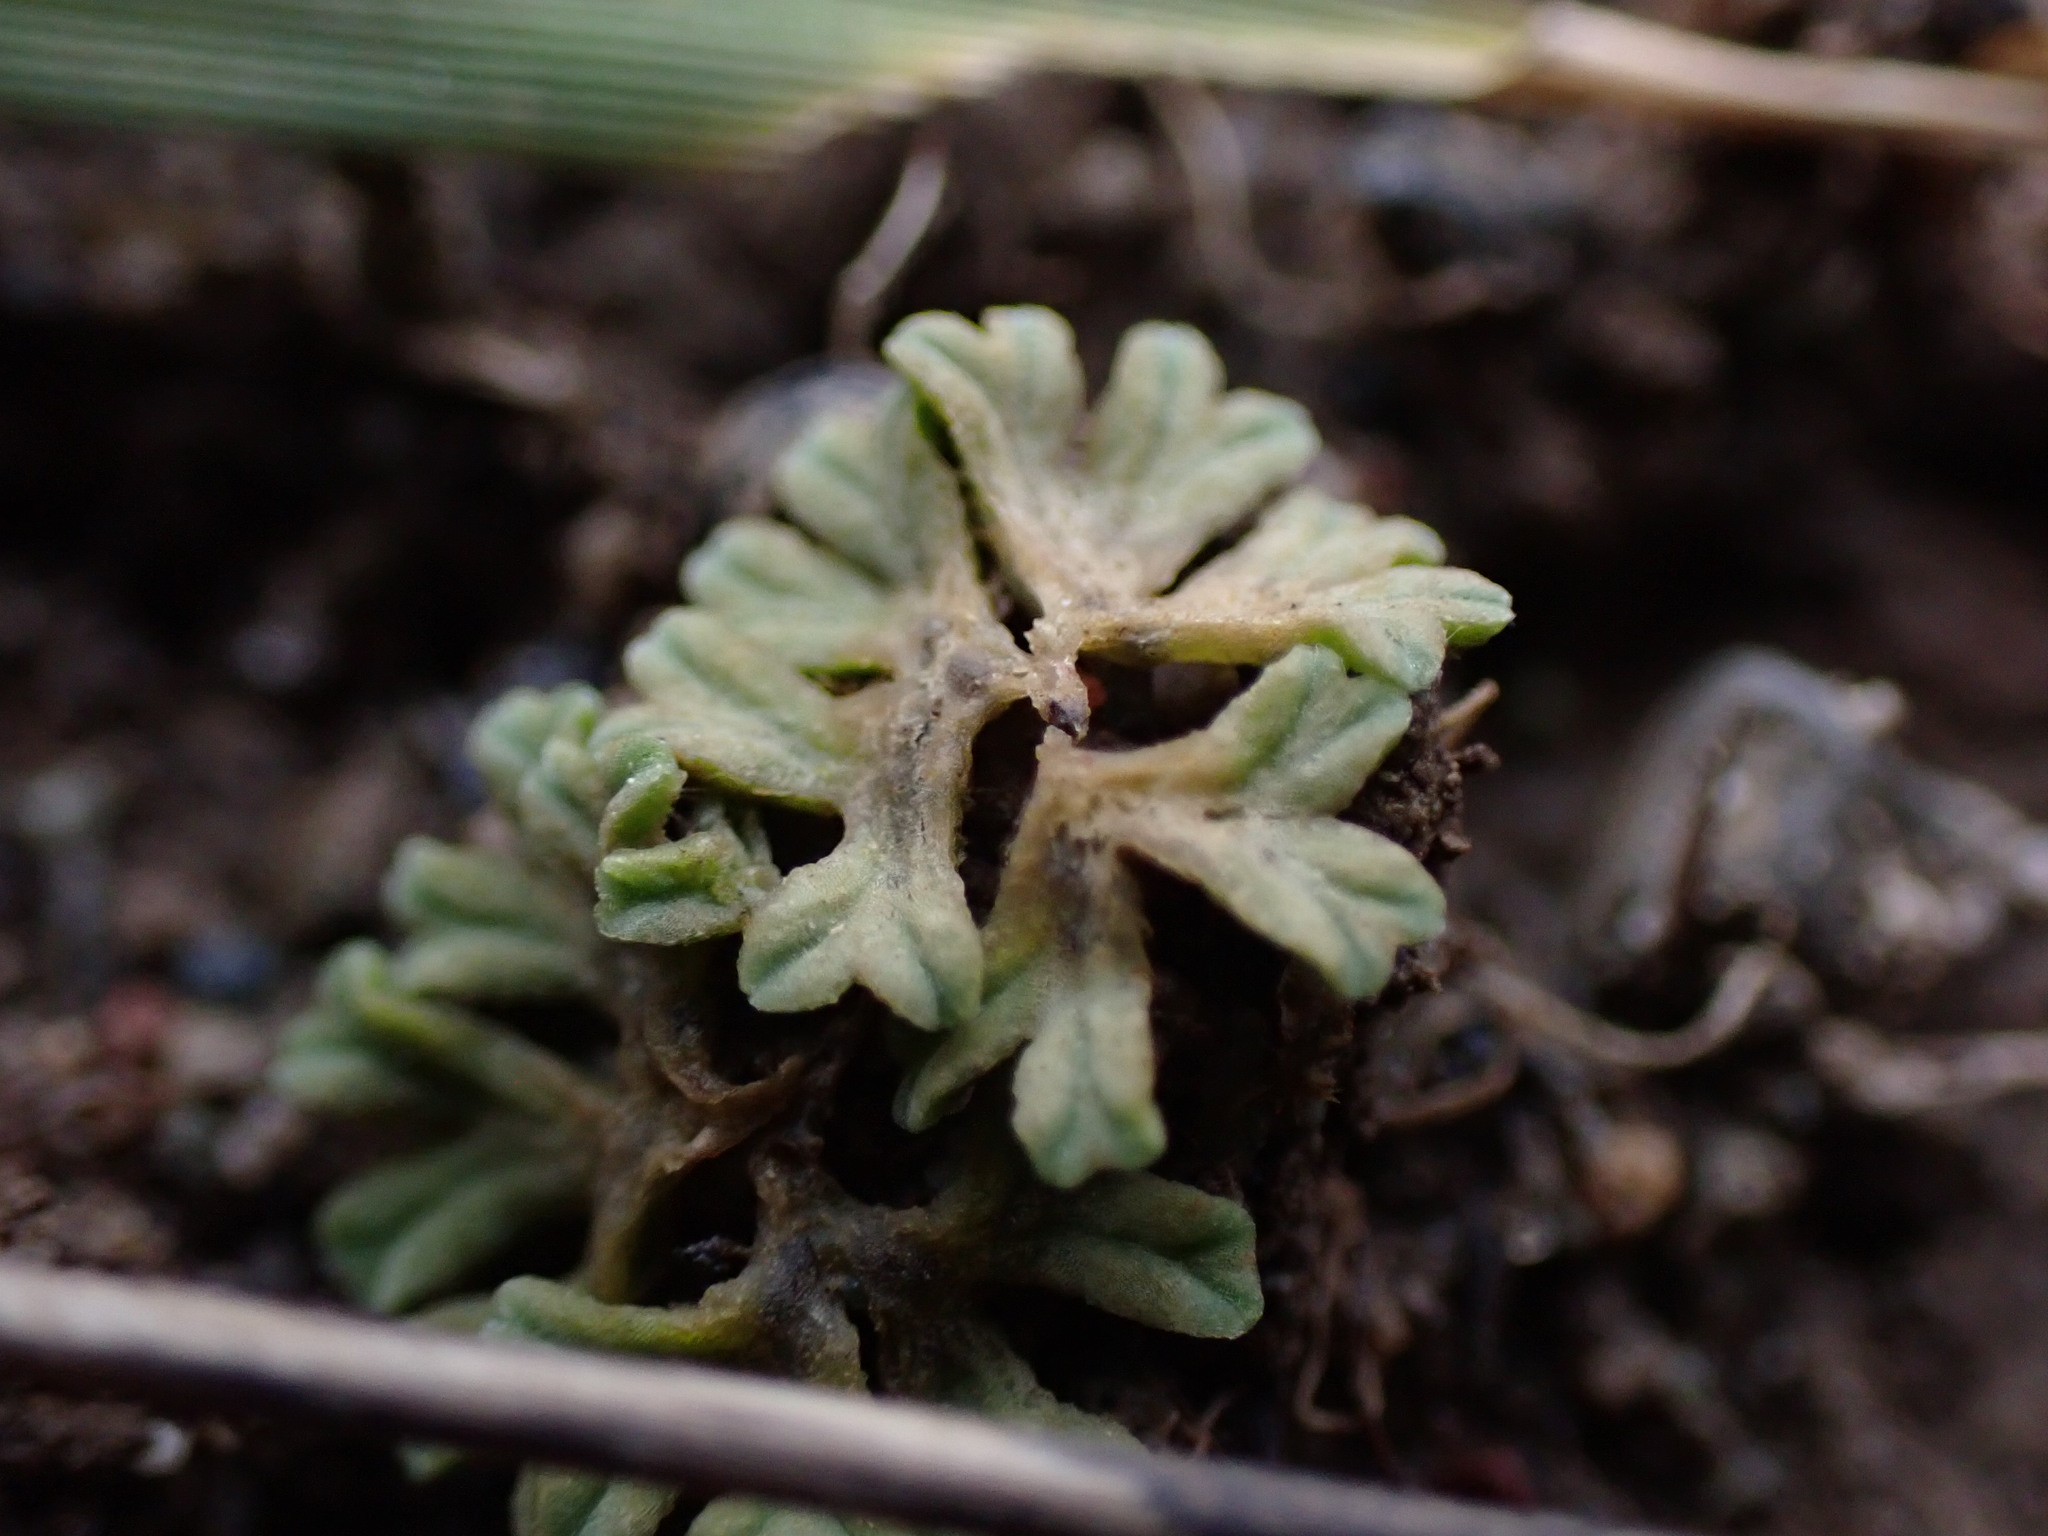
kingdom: Plantae
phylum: Marchantiophyta
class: Marchantiopsida
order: Marchantiales
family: Ricciaceae
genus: Riccia
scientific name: Riccia sorocarpa
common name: Common crystalwort
